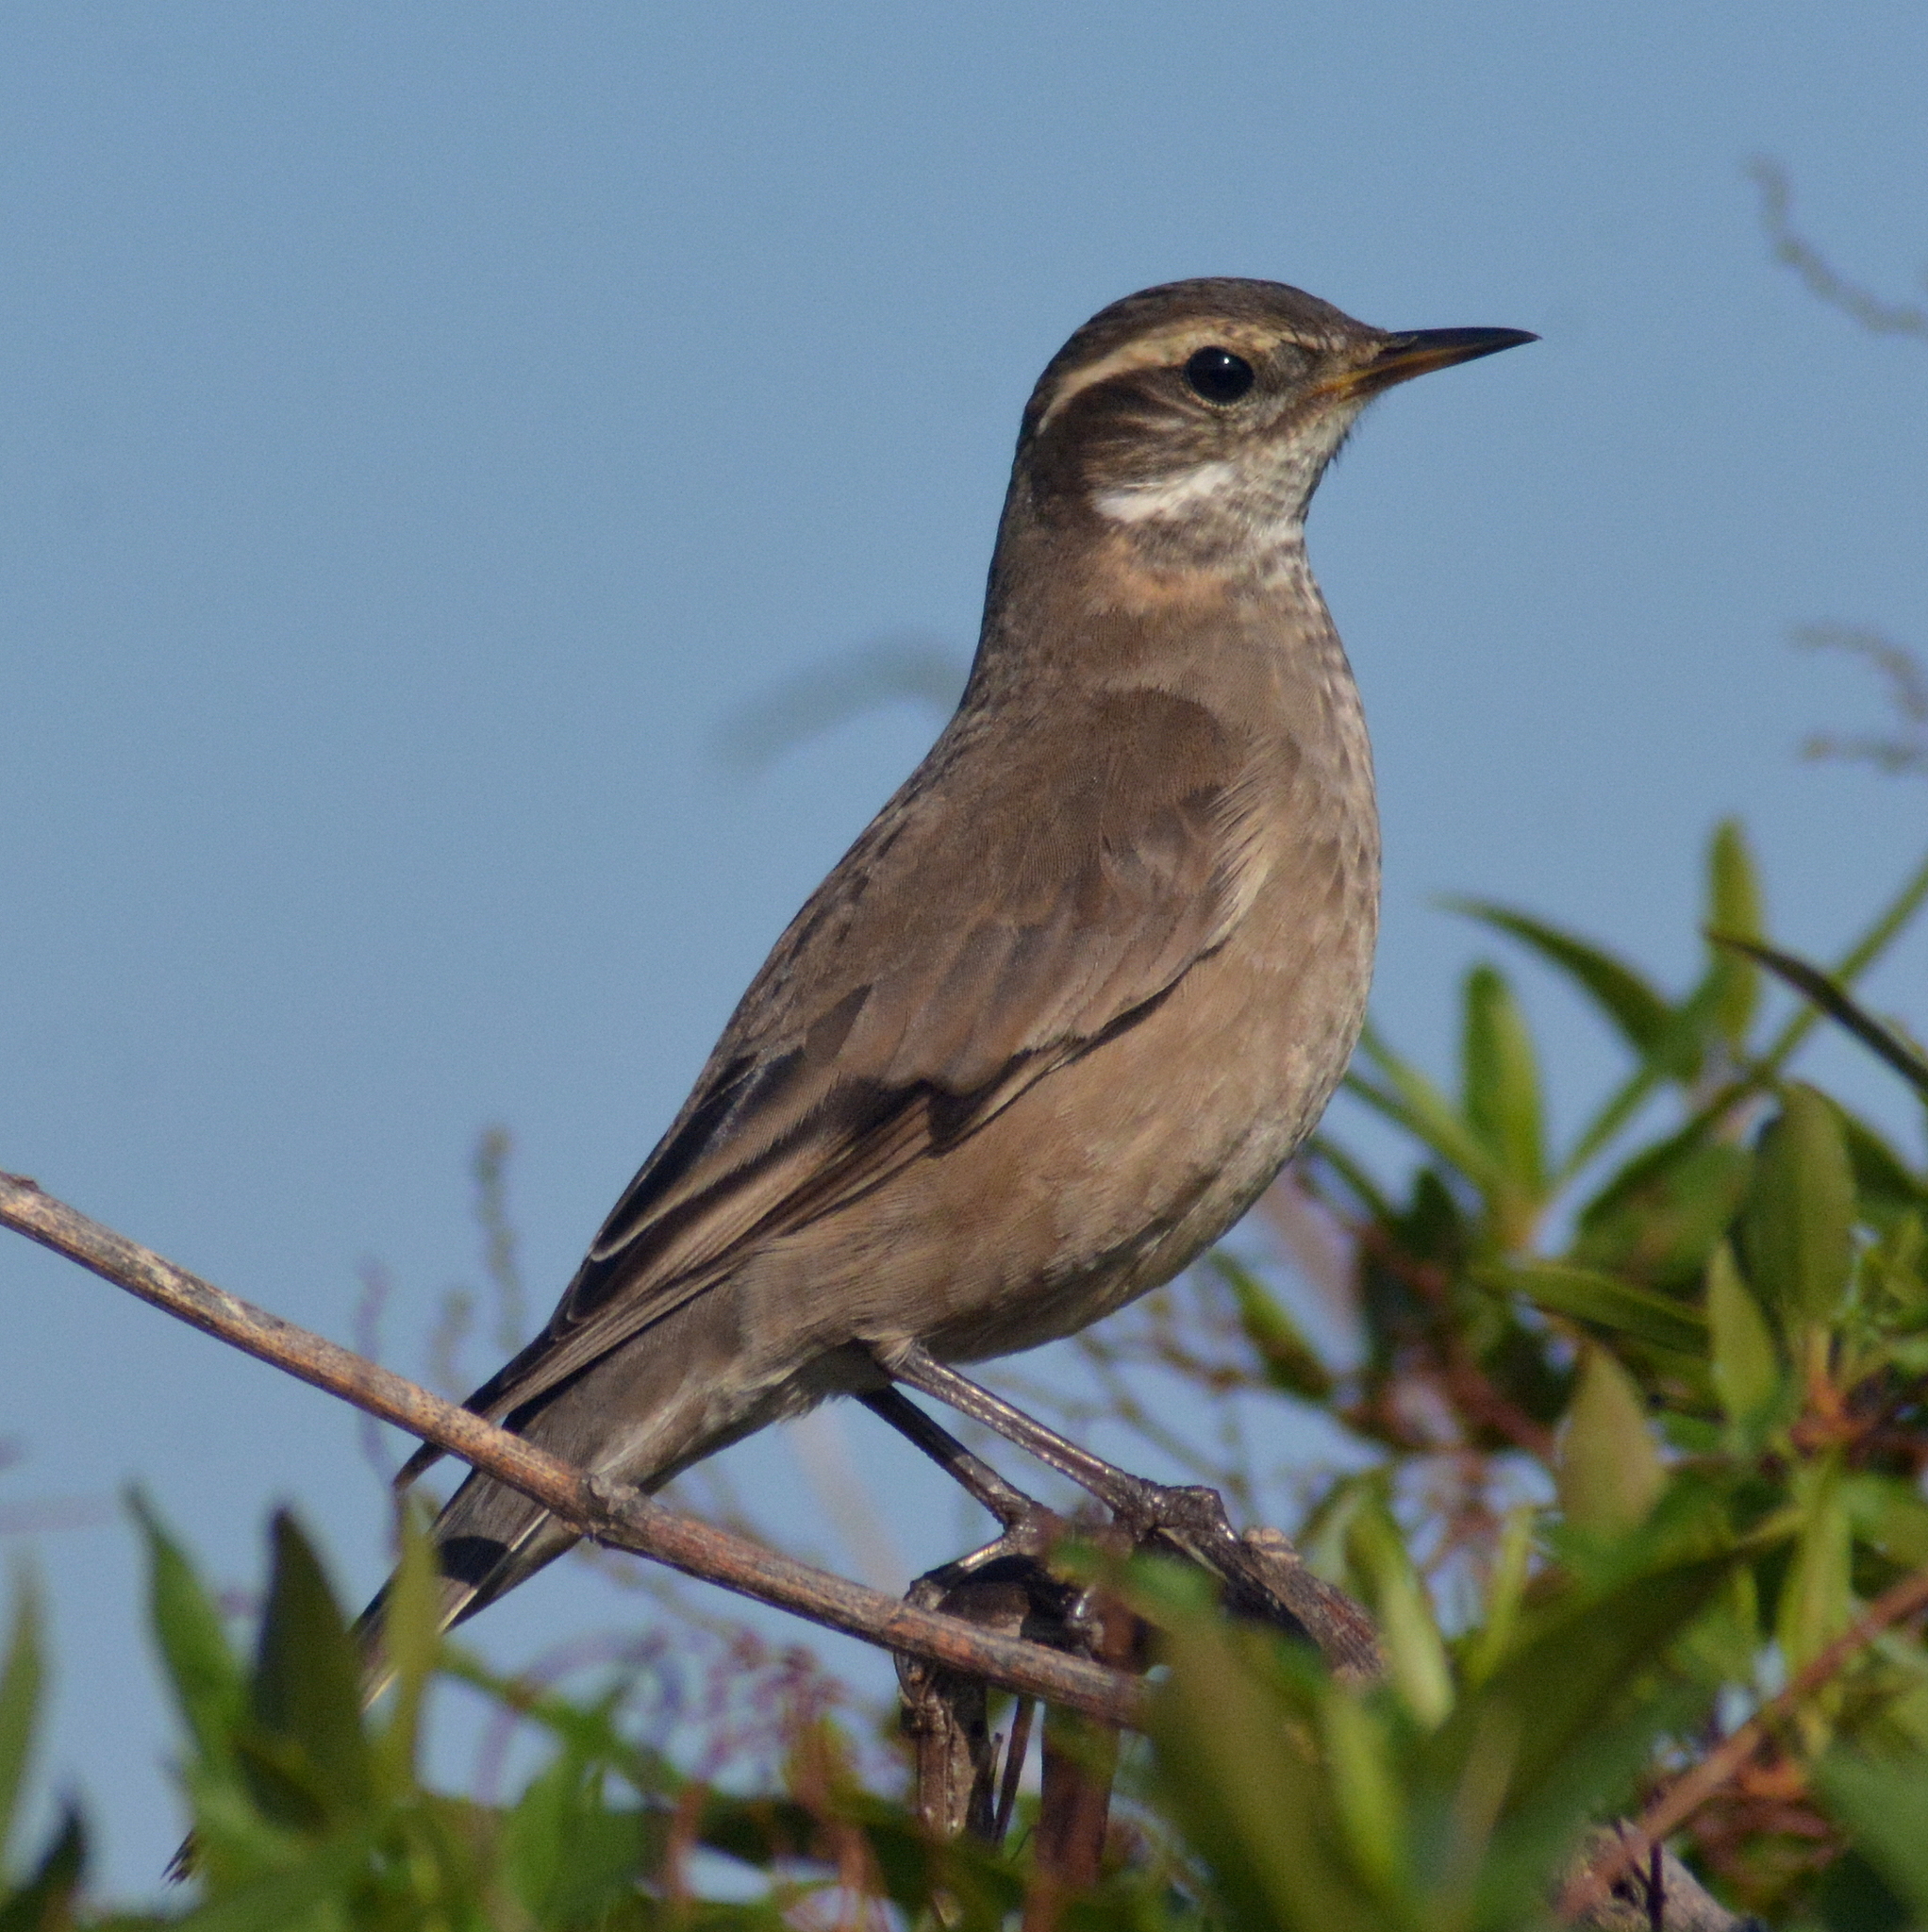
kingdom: Animalia
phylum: Chordata
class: Aves
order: Passeriformes
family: Furnariidae
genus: Cinclodes
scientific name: Cinclodes fuscus
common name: Buff-winged cinclodes
